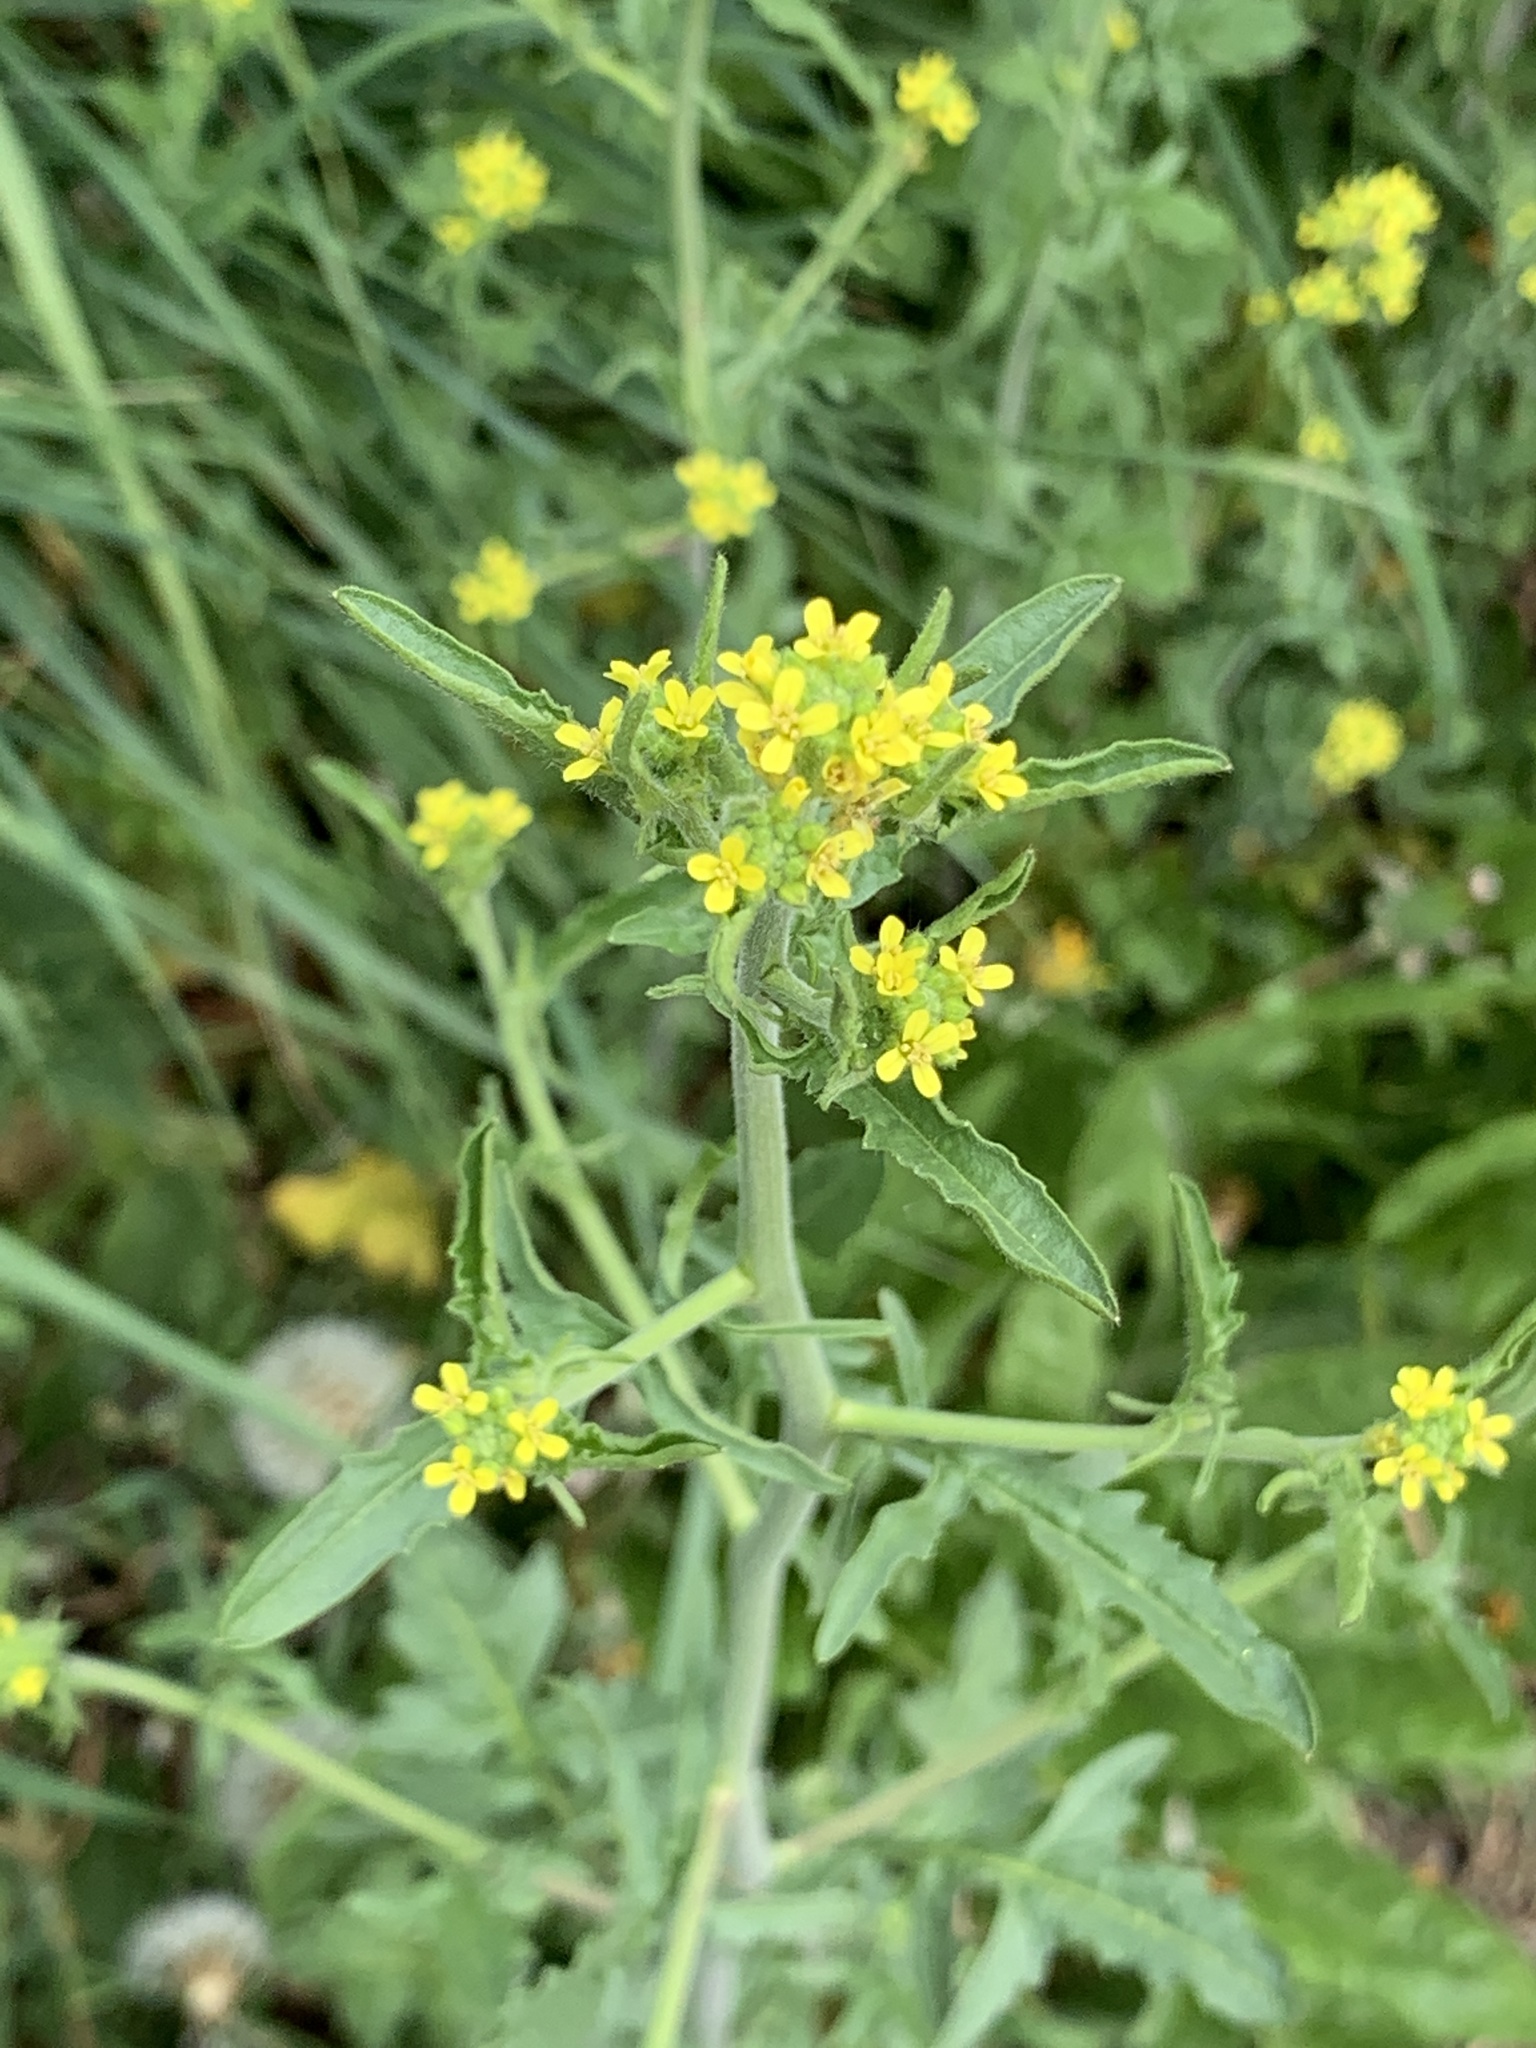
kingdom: Plantae
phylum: Tracheophyta
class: Magnoliopsida
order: Brassicales
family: Brassicaceae
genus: Sisymbrium
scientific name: Sisymbrium officinale
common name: Hedge mustard
